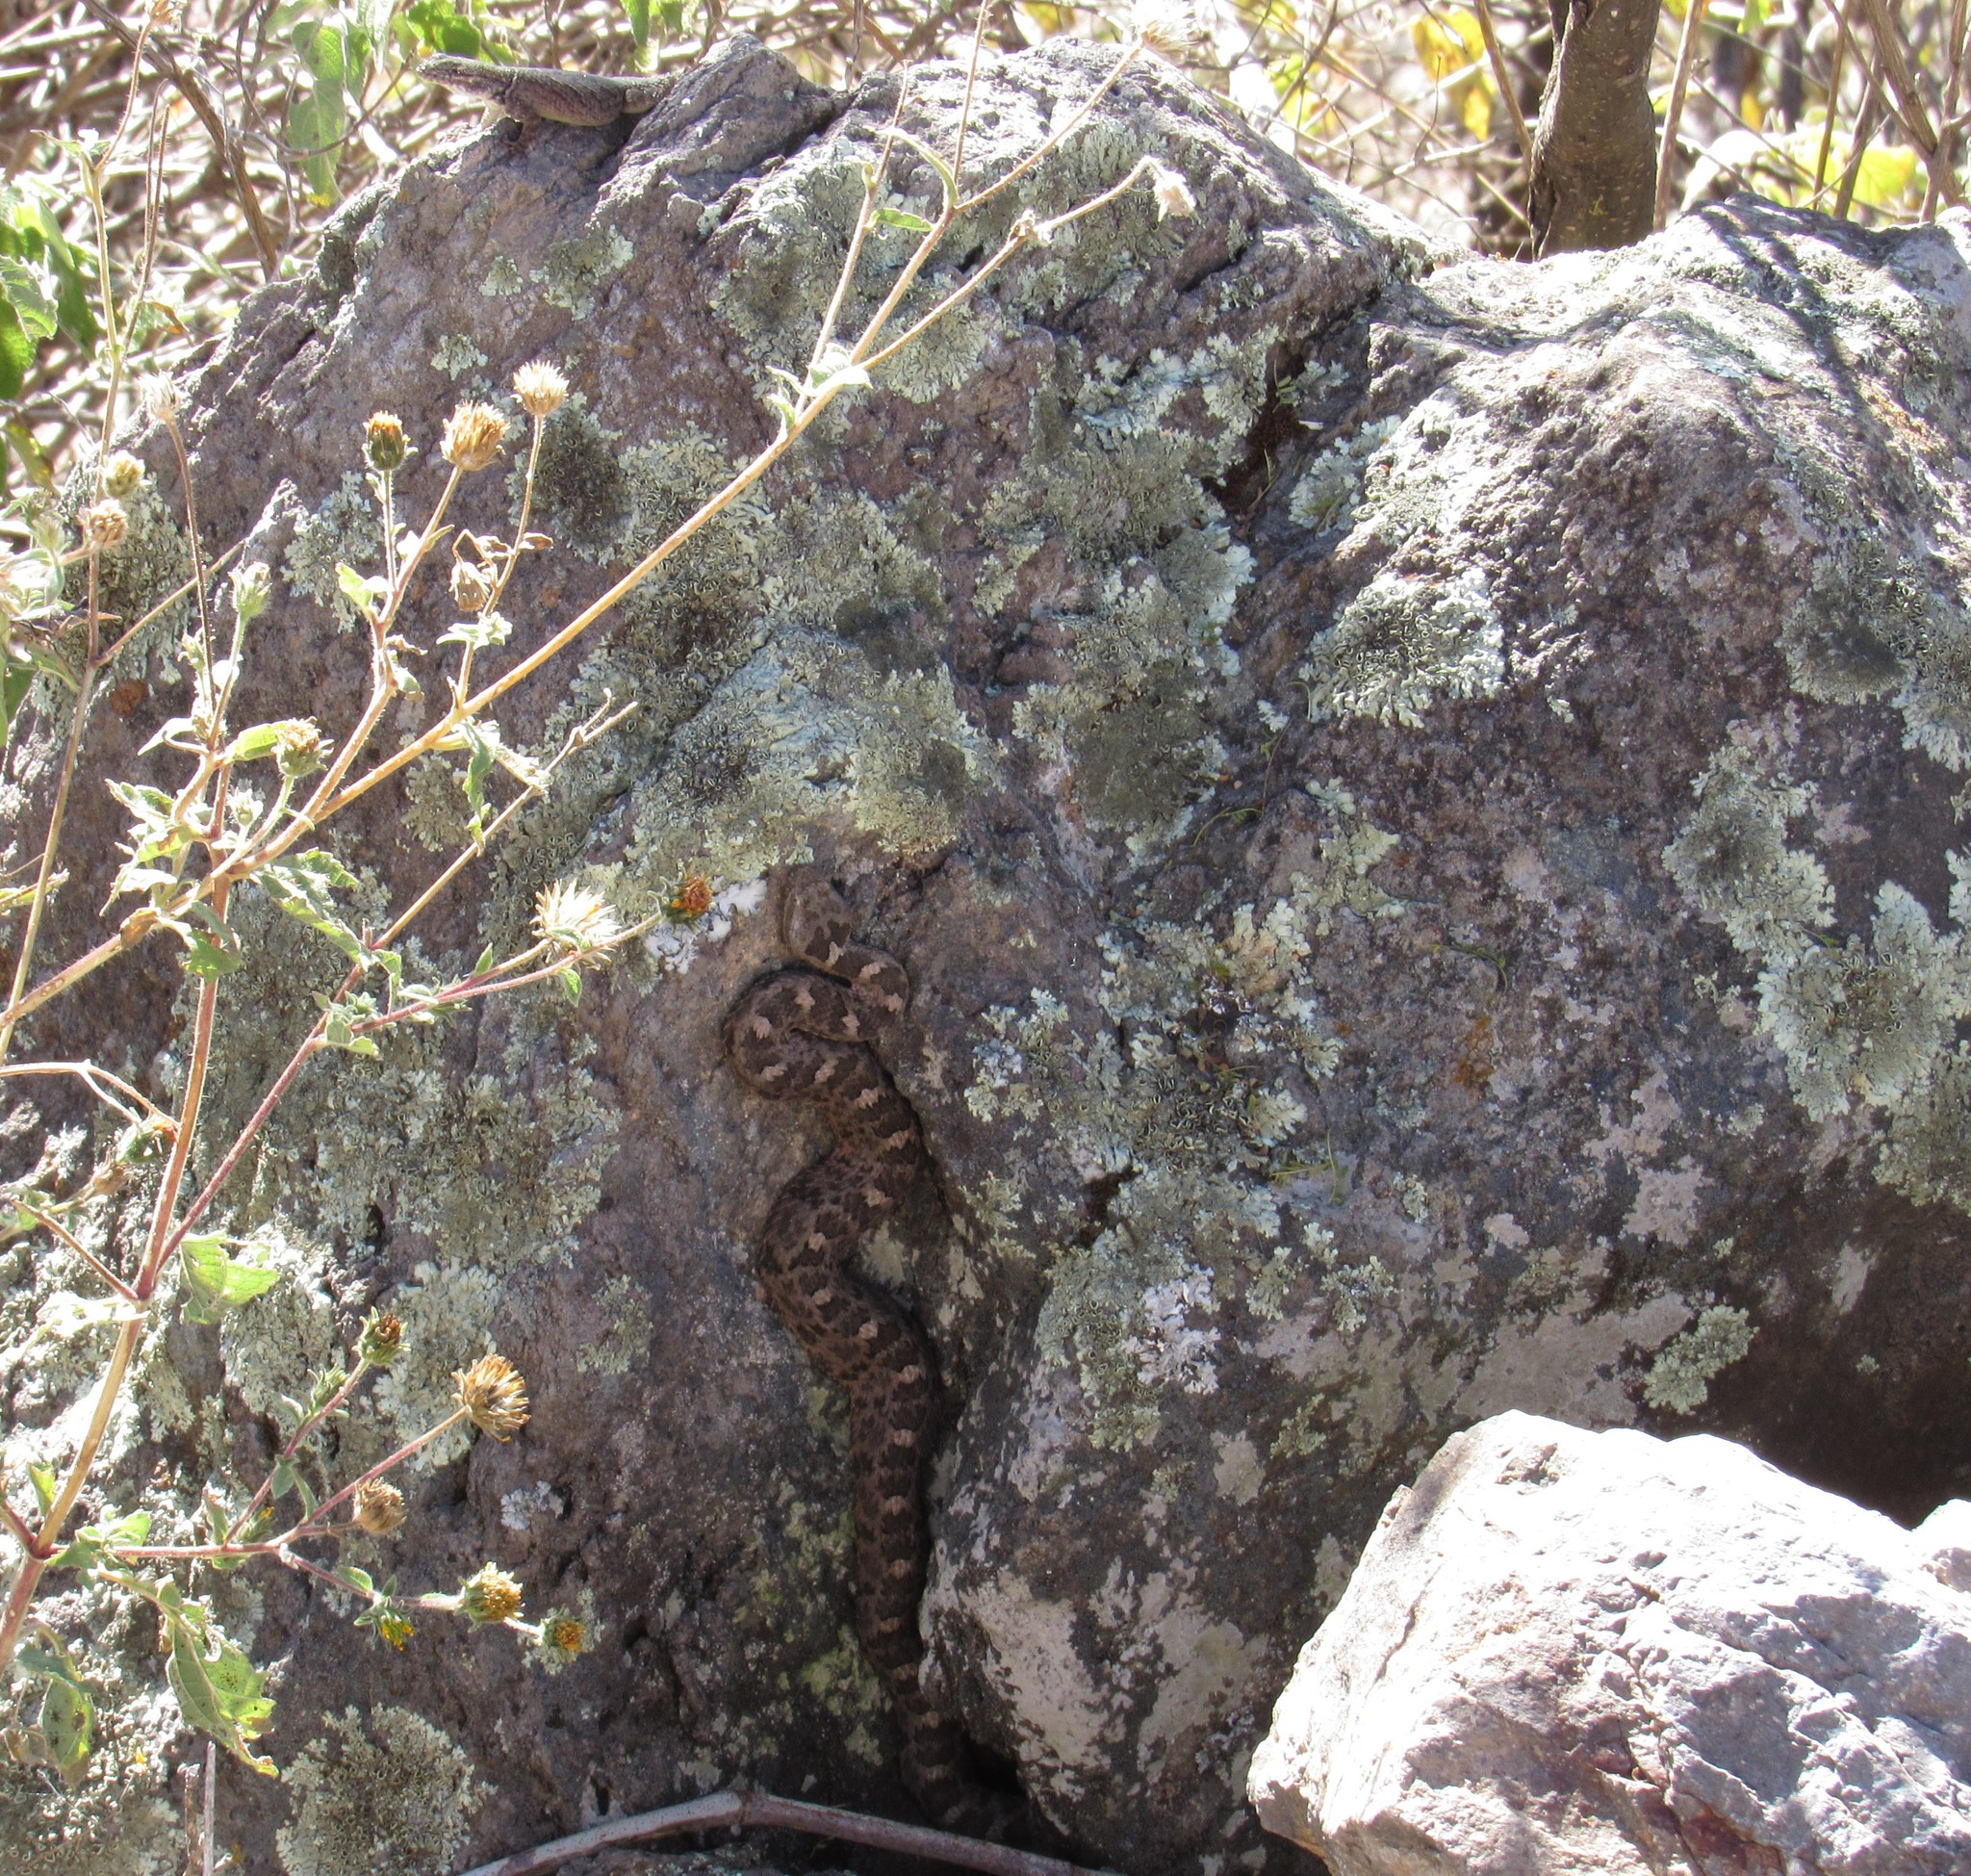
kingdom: Animalia
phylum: Chordata
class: Squamata
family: Viperidae
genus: Crotalus
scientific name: Crotalus aquilus
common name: Queretaran dusky rattlesnake
